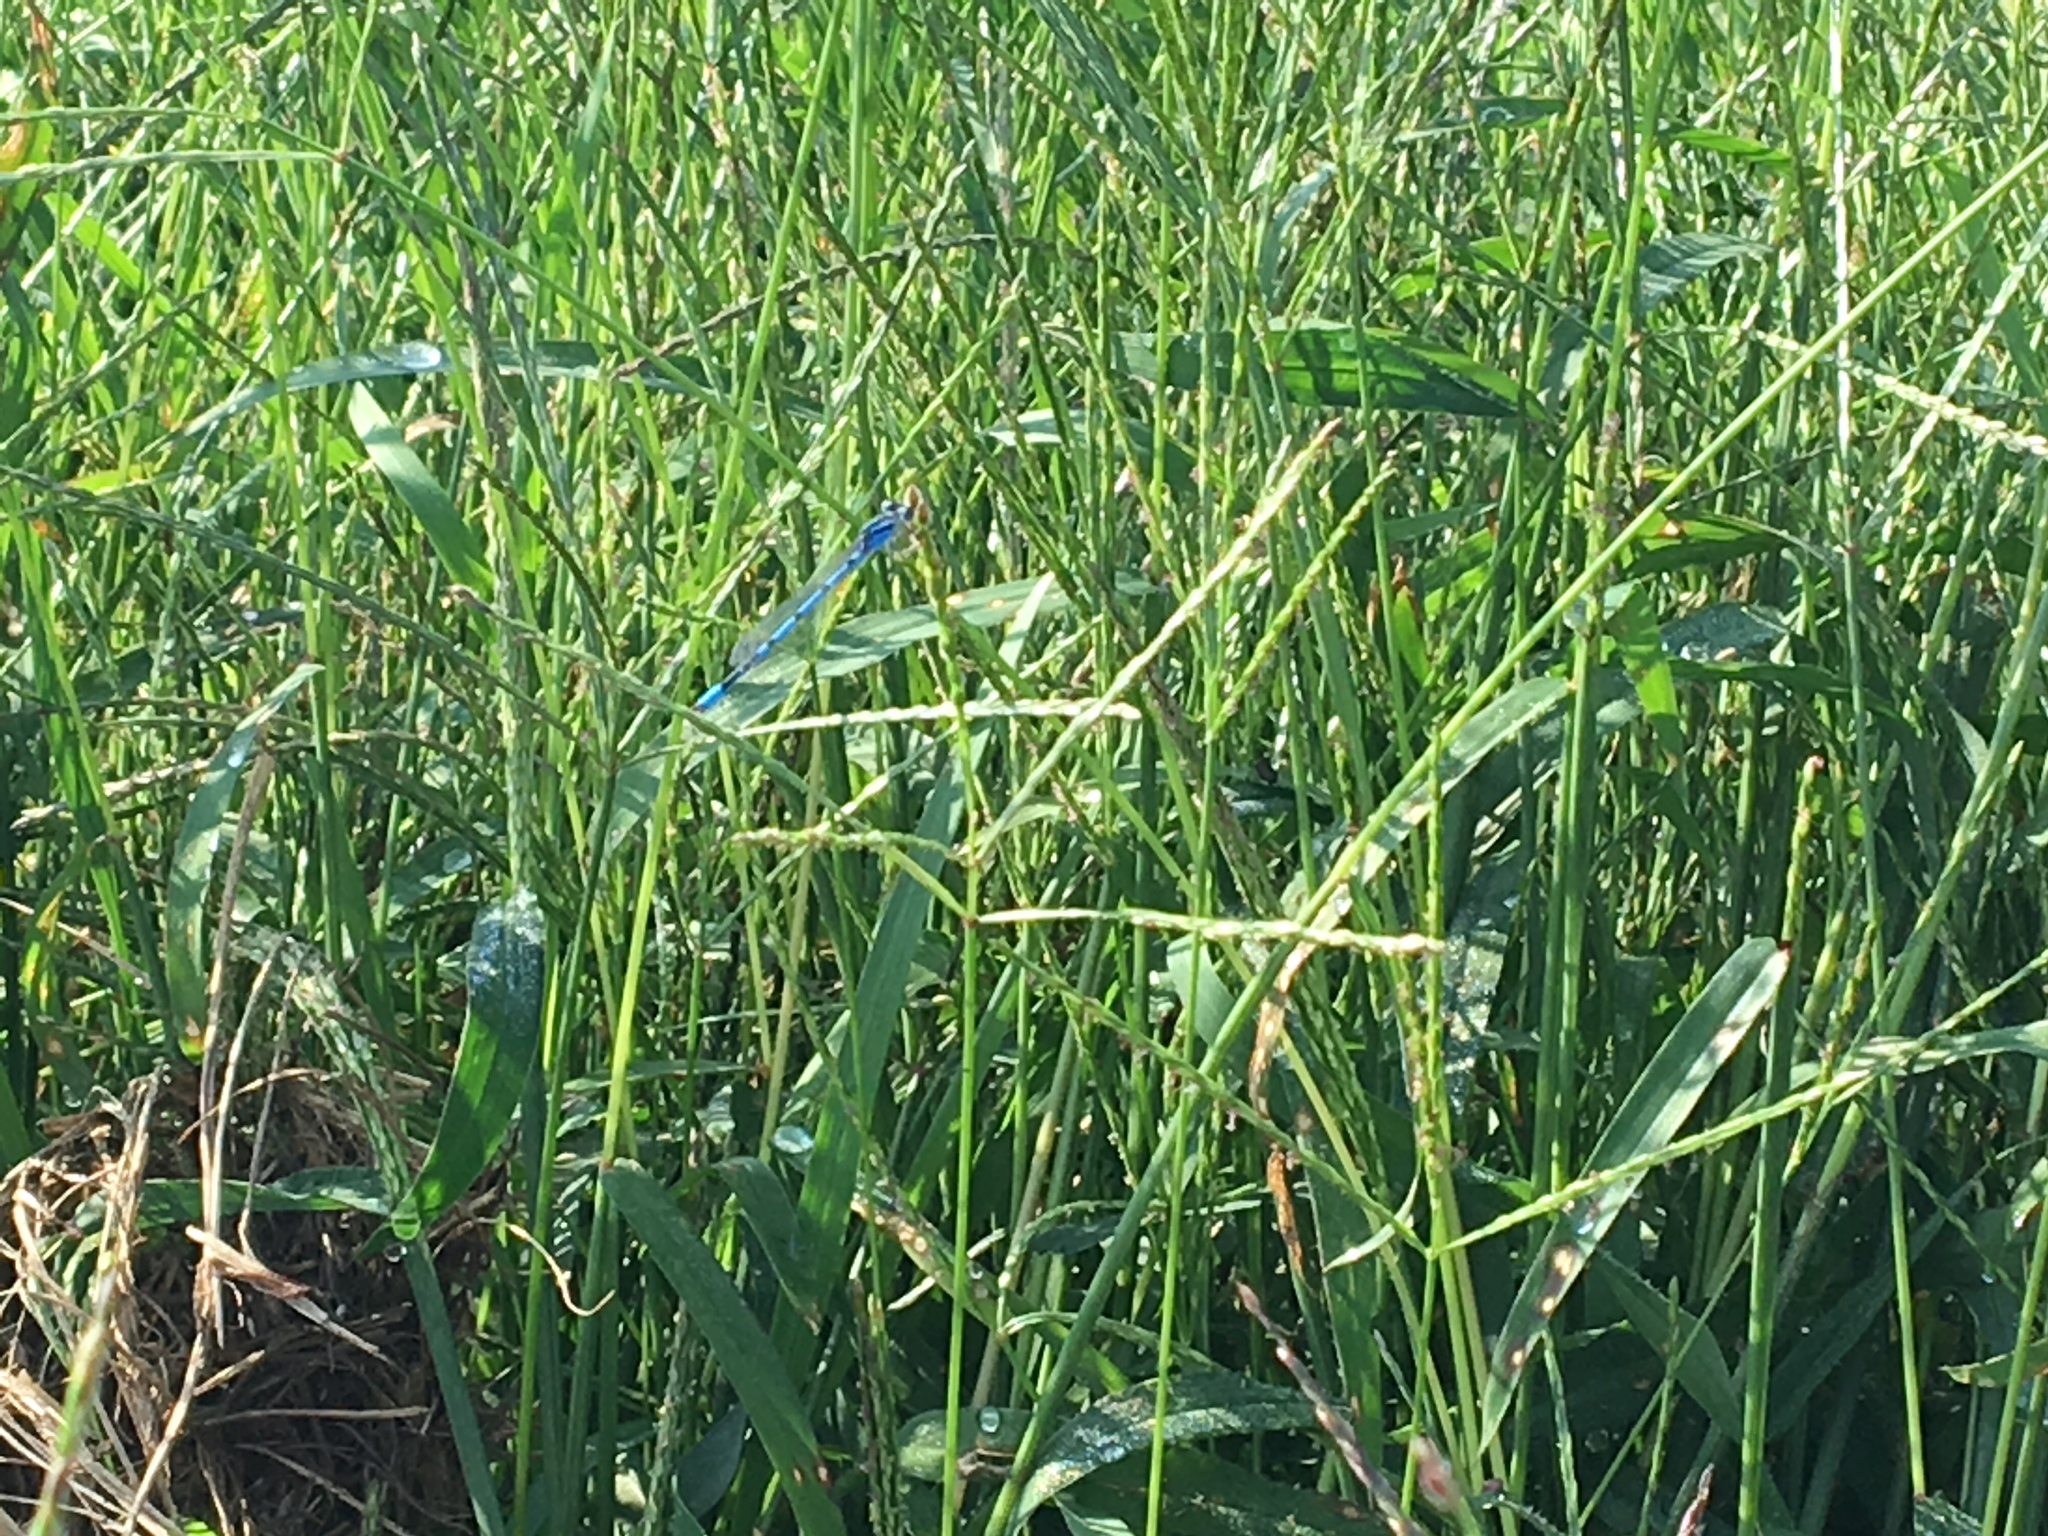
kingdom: Animalia
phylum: Arthropoda
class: Insecta
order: Odonata
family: Coenagrionidae
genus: Enallagma
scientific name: Enallagma civile
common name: Damselfly
